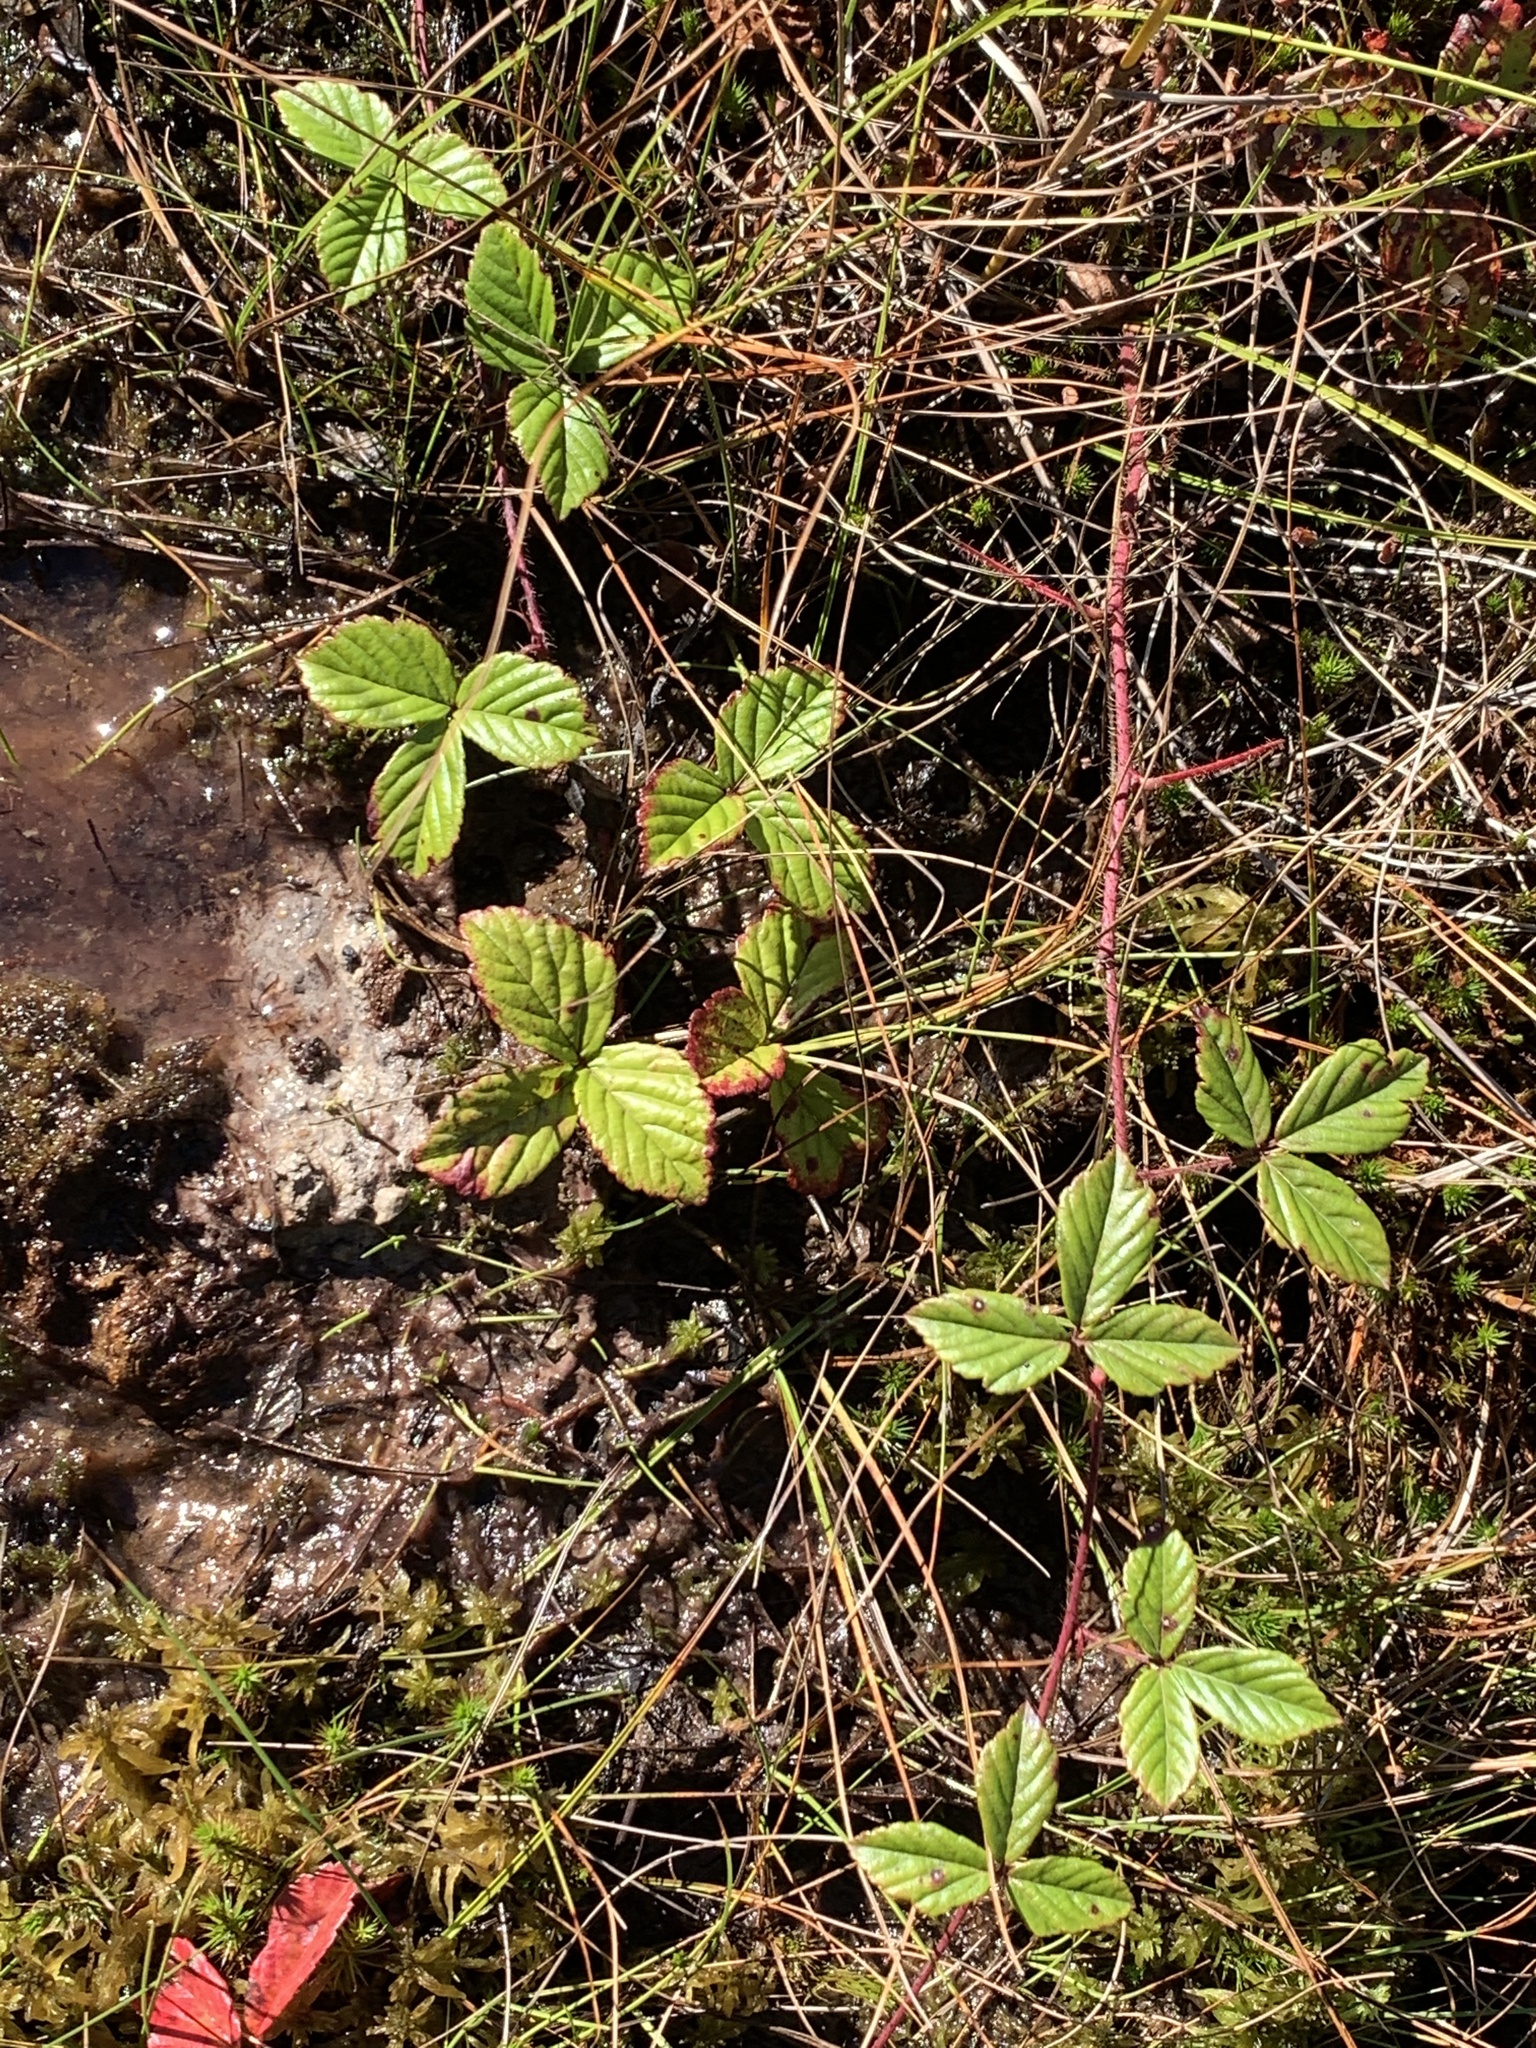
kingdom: Plantae
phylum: Tracheophyta
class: Magnoliopsida
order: Rosales
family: Rosaceae
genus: Rubus
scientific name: Rubus hispidus
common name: Running blackberry
